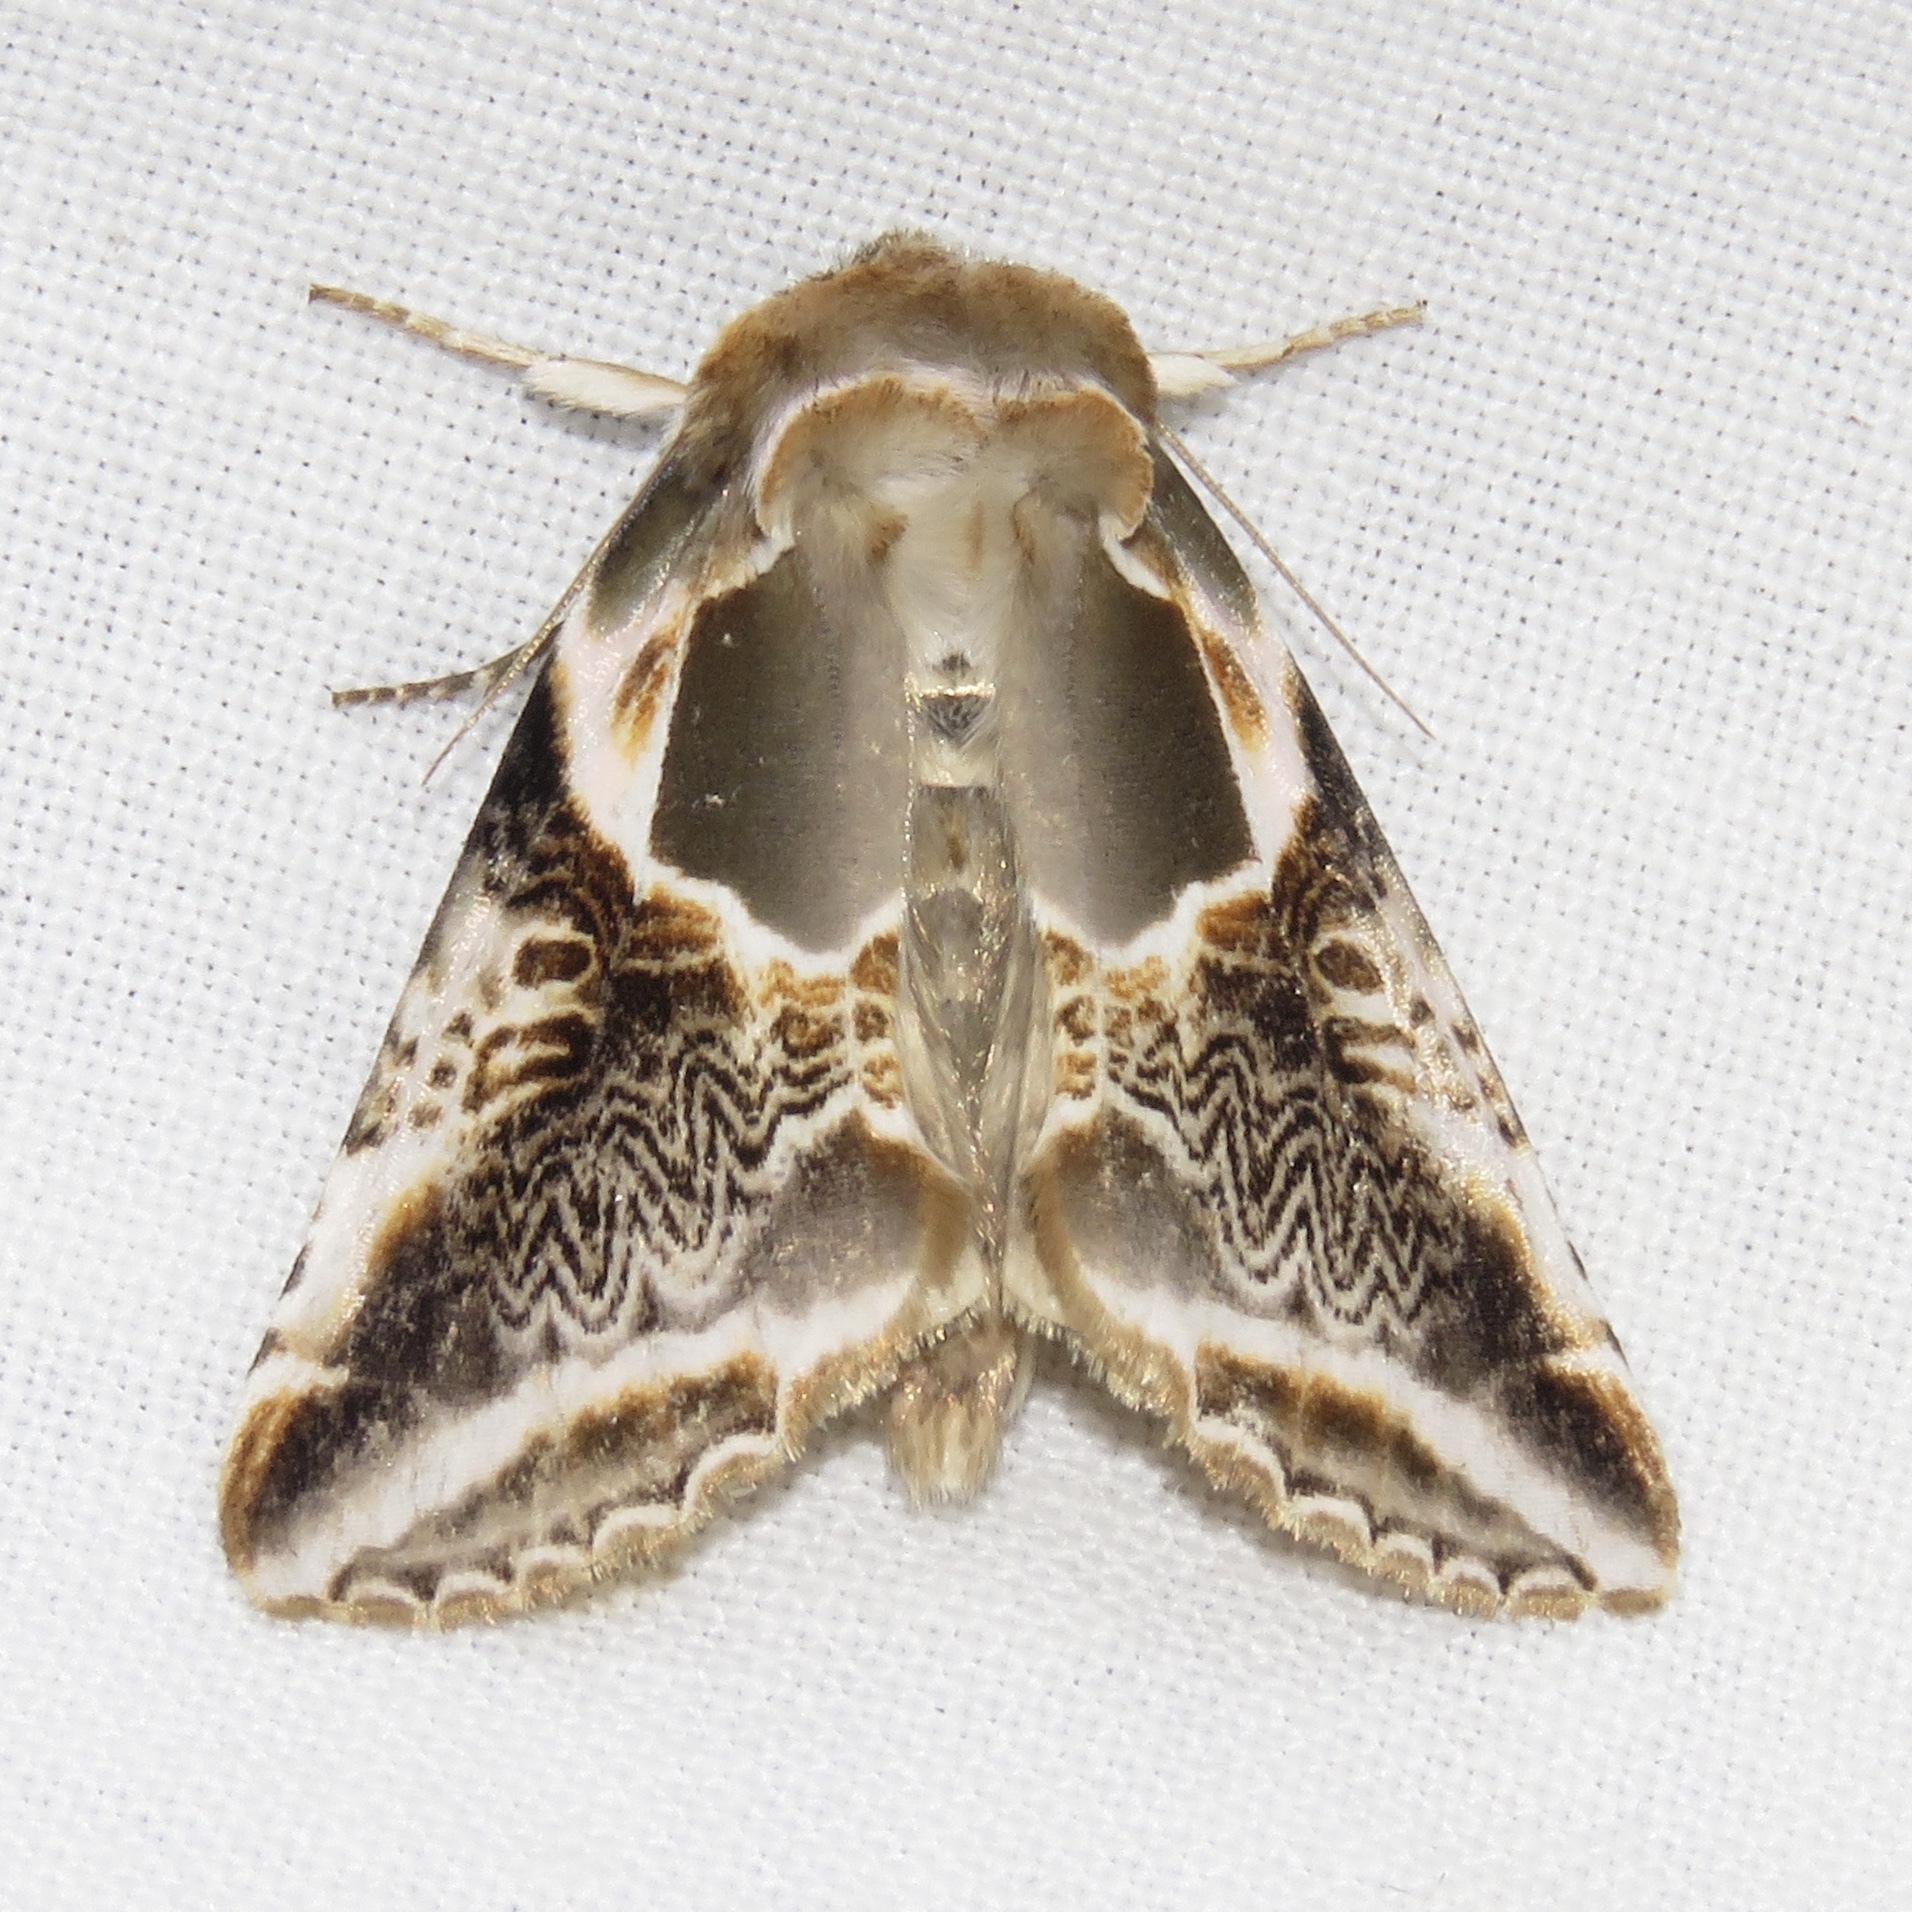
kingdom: Animalia
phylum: Arthropoda
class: Insecta
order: Lepidoptera
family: Drepanidae
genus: Habrosyne
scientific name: Habrosyne scripta
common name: Lettered habrosyne moth
